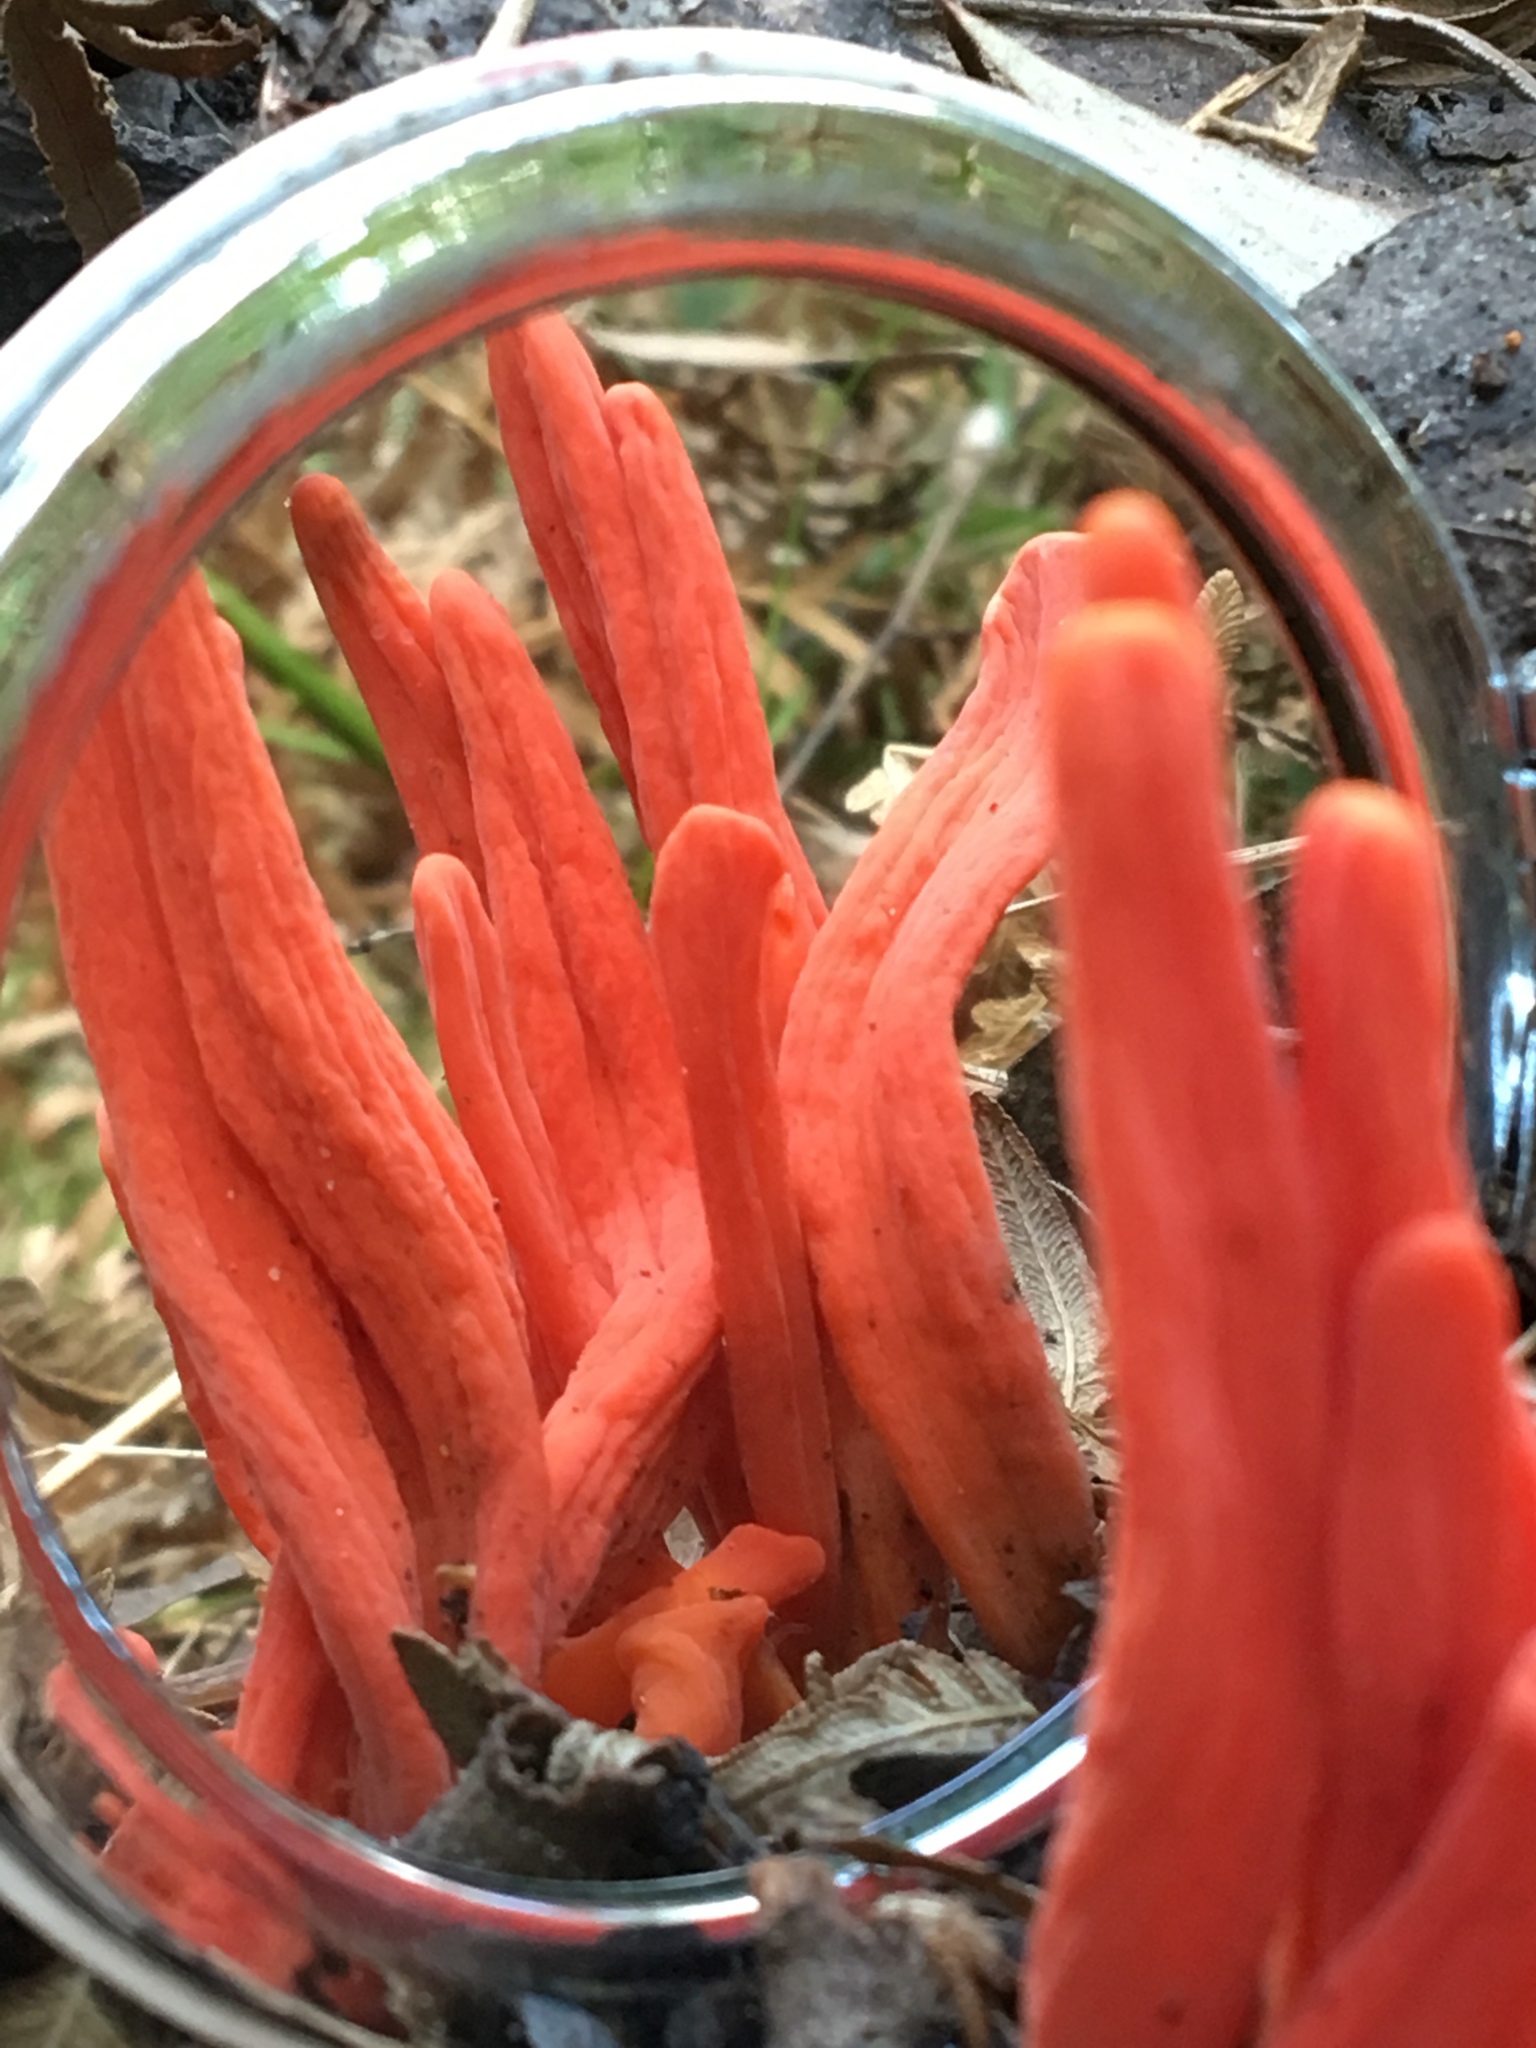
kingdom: Fungi
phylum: Basidiomycota
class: Agaricomycetes
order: Agaricales
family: Clavariaceae
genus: Clavulinopsis
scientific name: Clavulinopsis sulcata
